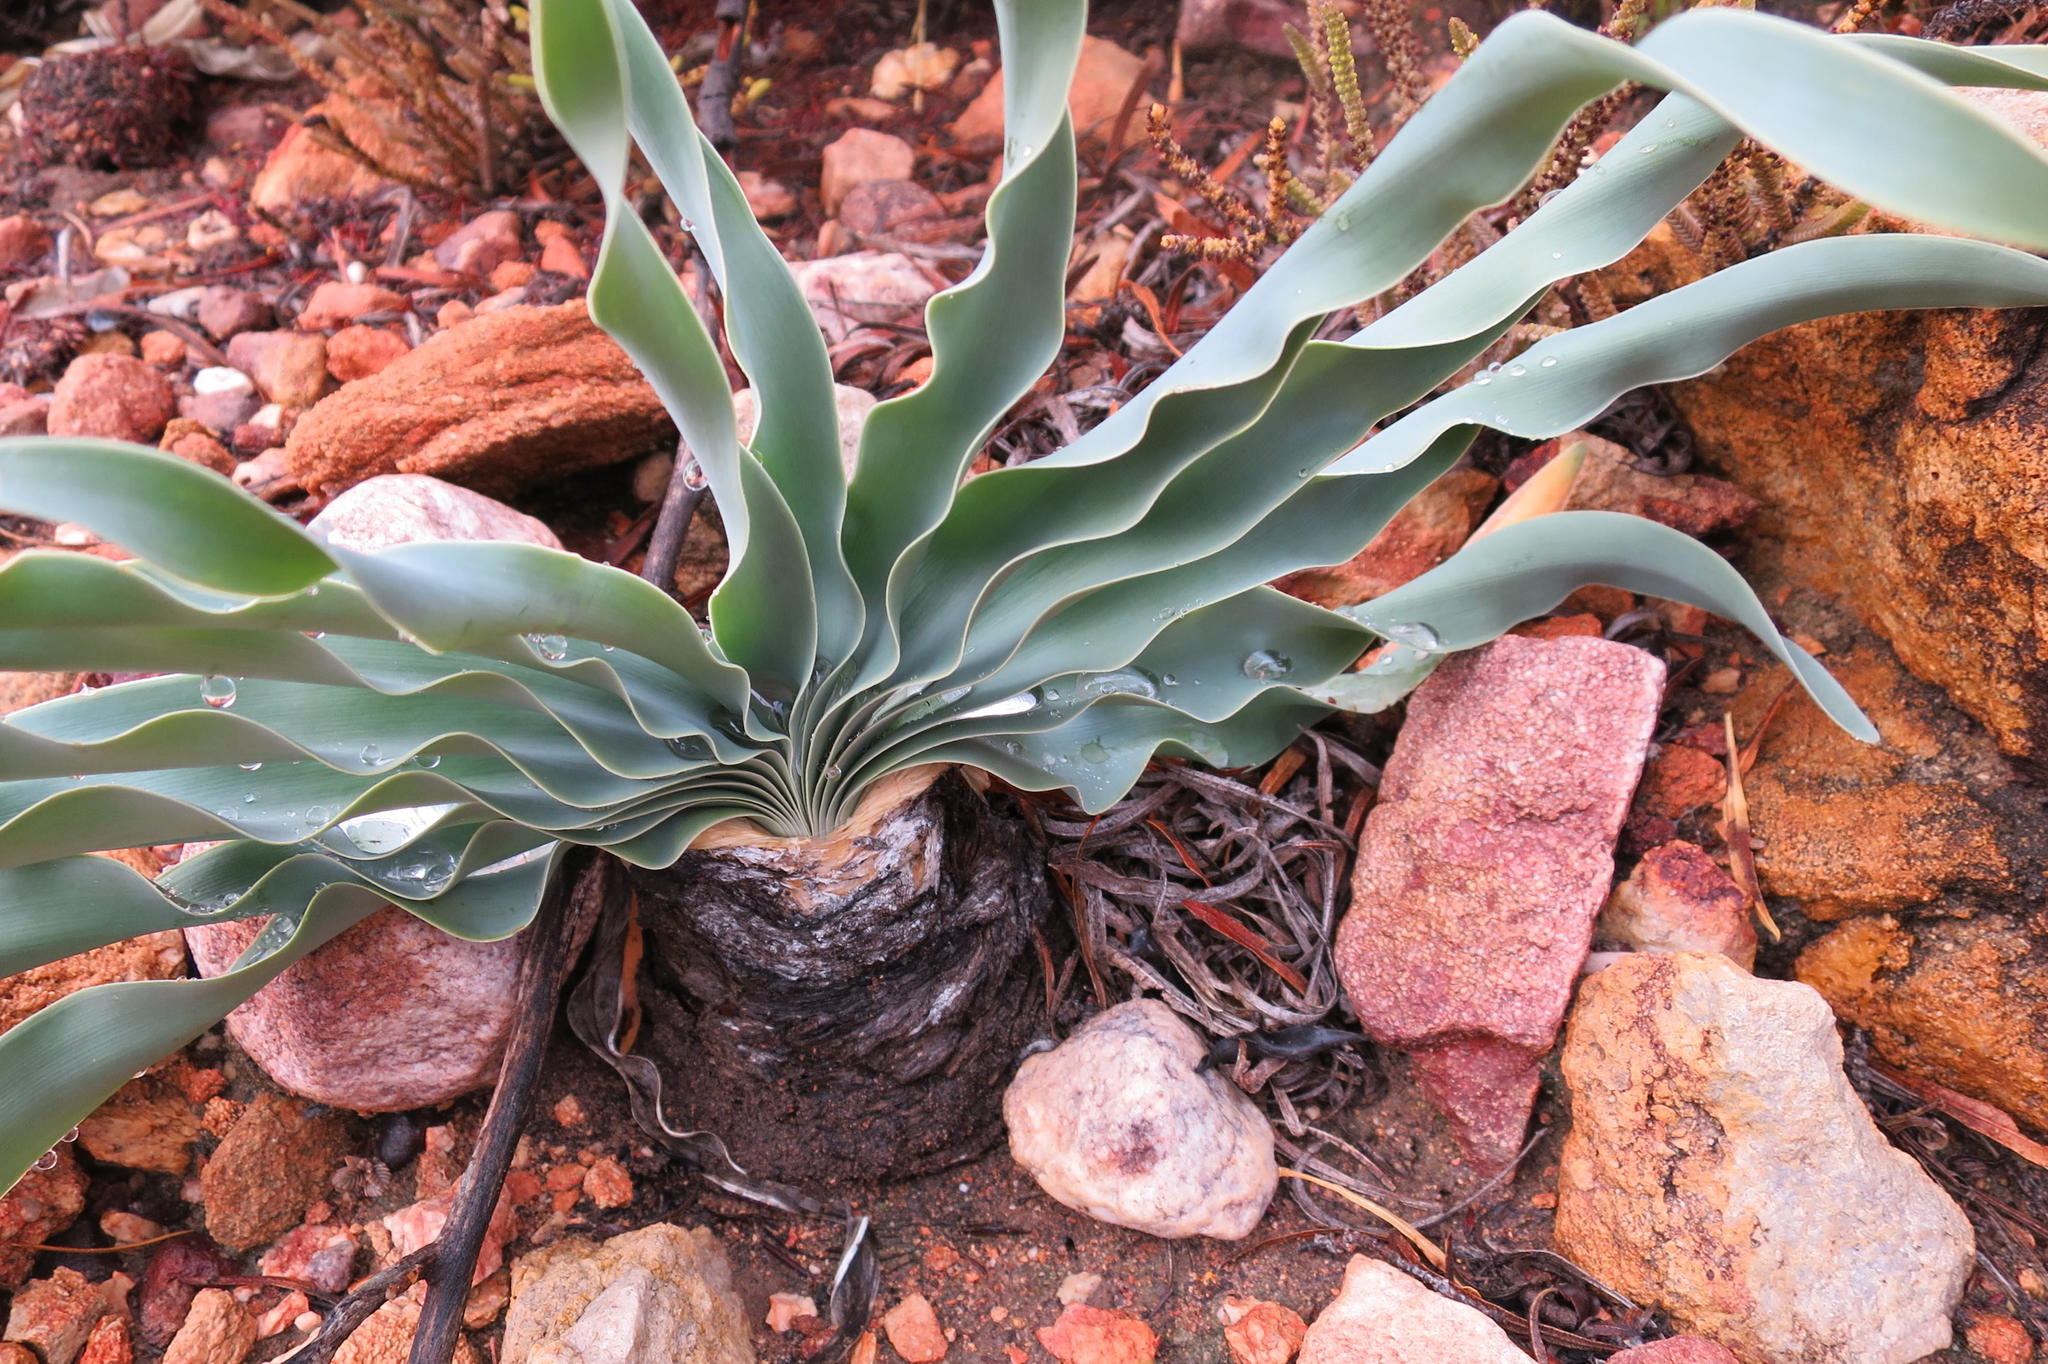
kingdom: Plantae
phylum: Tracheophyta
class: Liliopsida
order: Asparagales
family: Amaryllidaceae
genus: Boophone
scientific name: Boophone disticha
